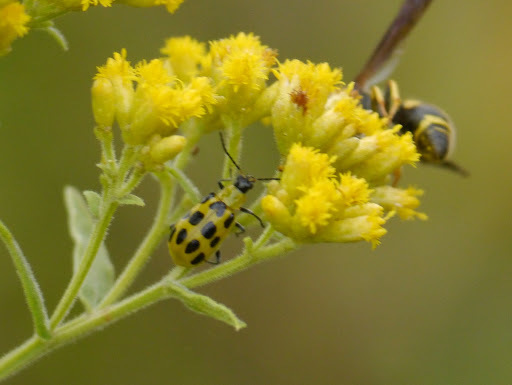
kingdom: Animalia
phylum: Arthropoda
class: Insecta
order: Coleoptera
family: Chrysomelidae
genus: Diabrotica
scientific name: Diabrotica undecimpunctata
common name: Spotted cucumber beetle
